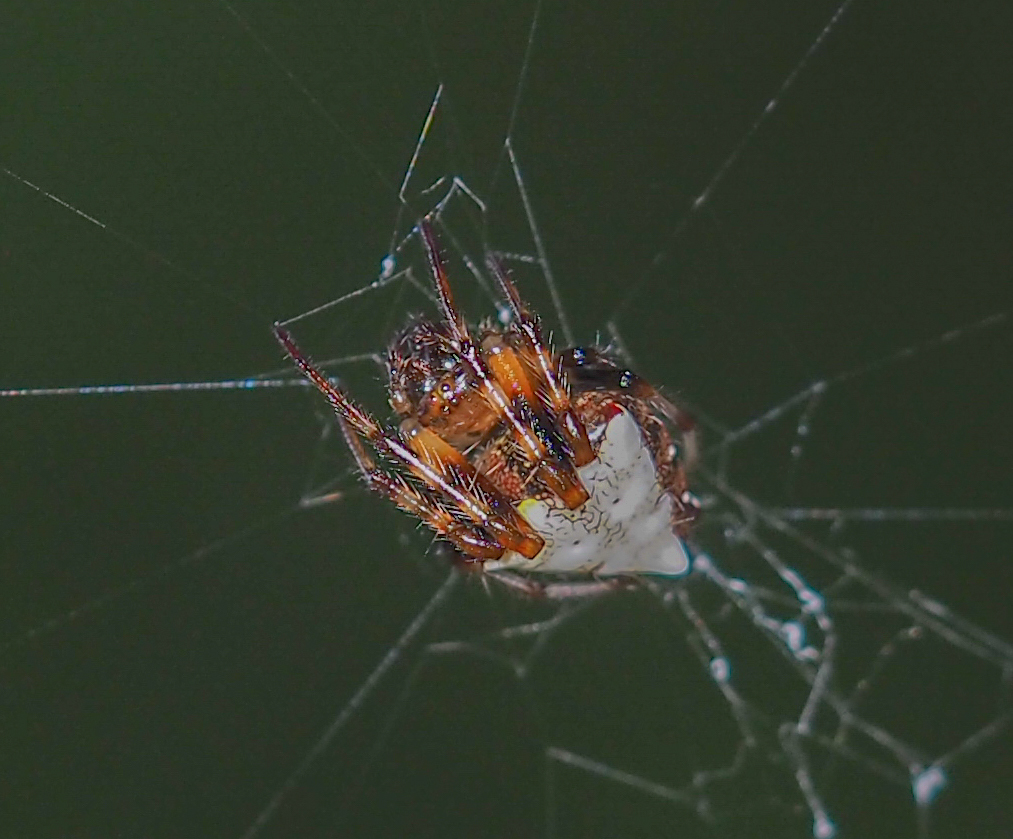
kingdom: Animalia
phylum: Arthropoda
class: Arachnida
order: Araneae
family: Araneidae
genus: Verrucosa
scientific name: Verrucosa arenata
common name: Orb weavers
